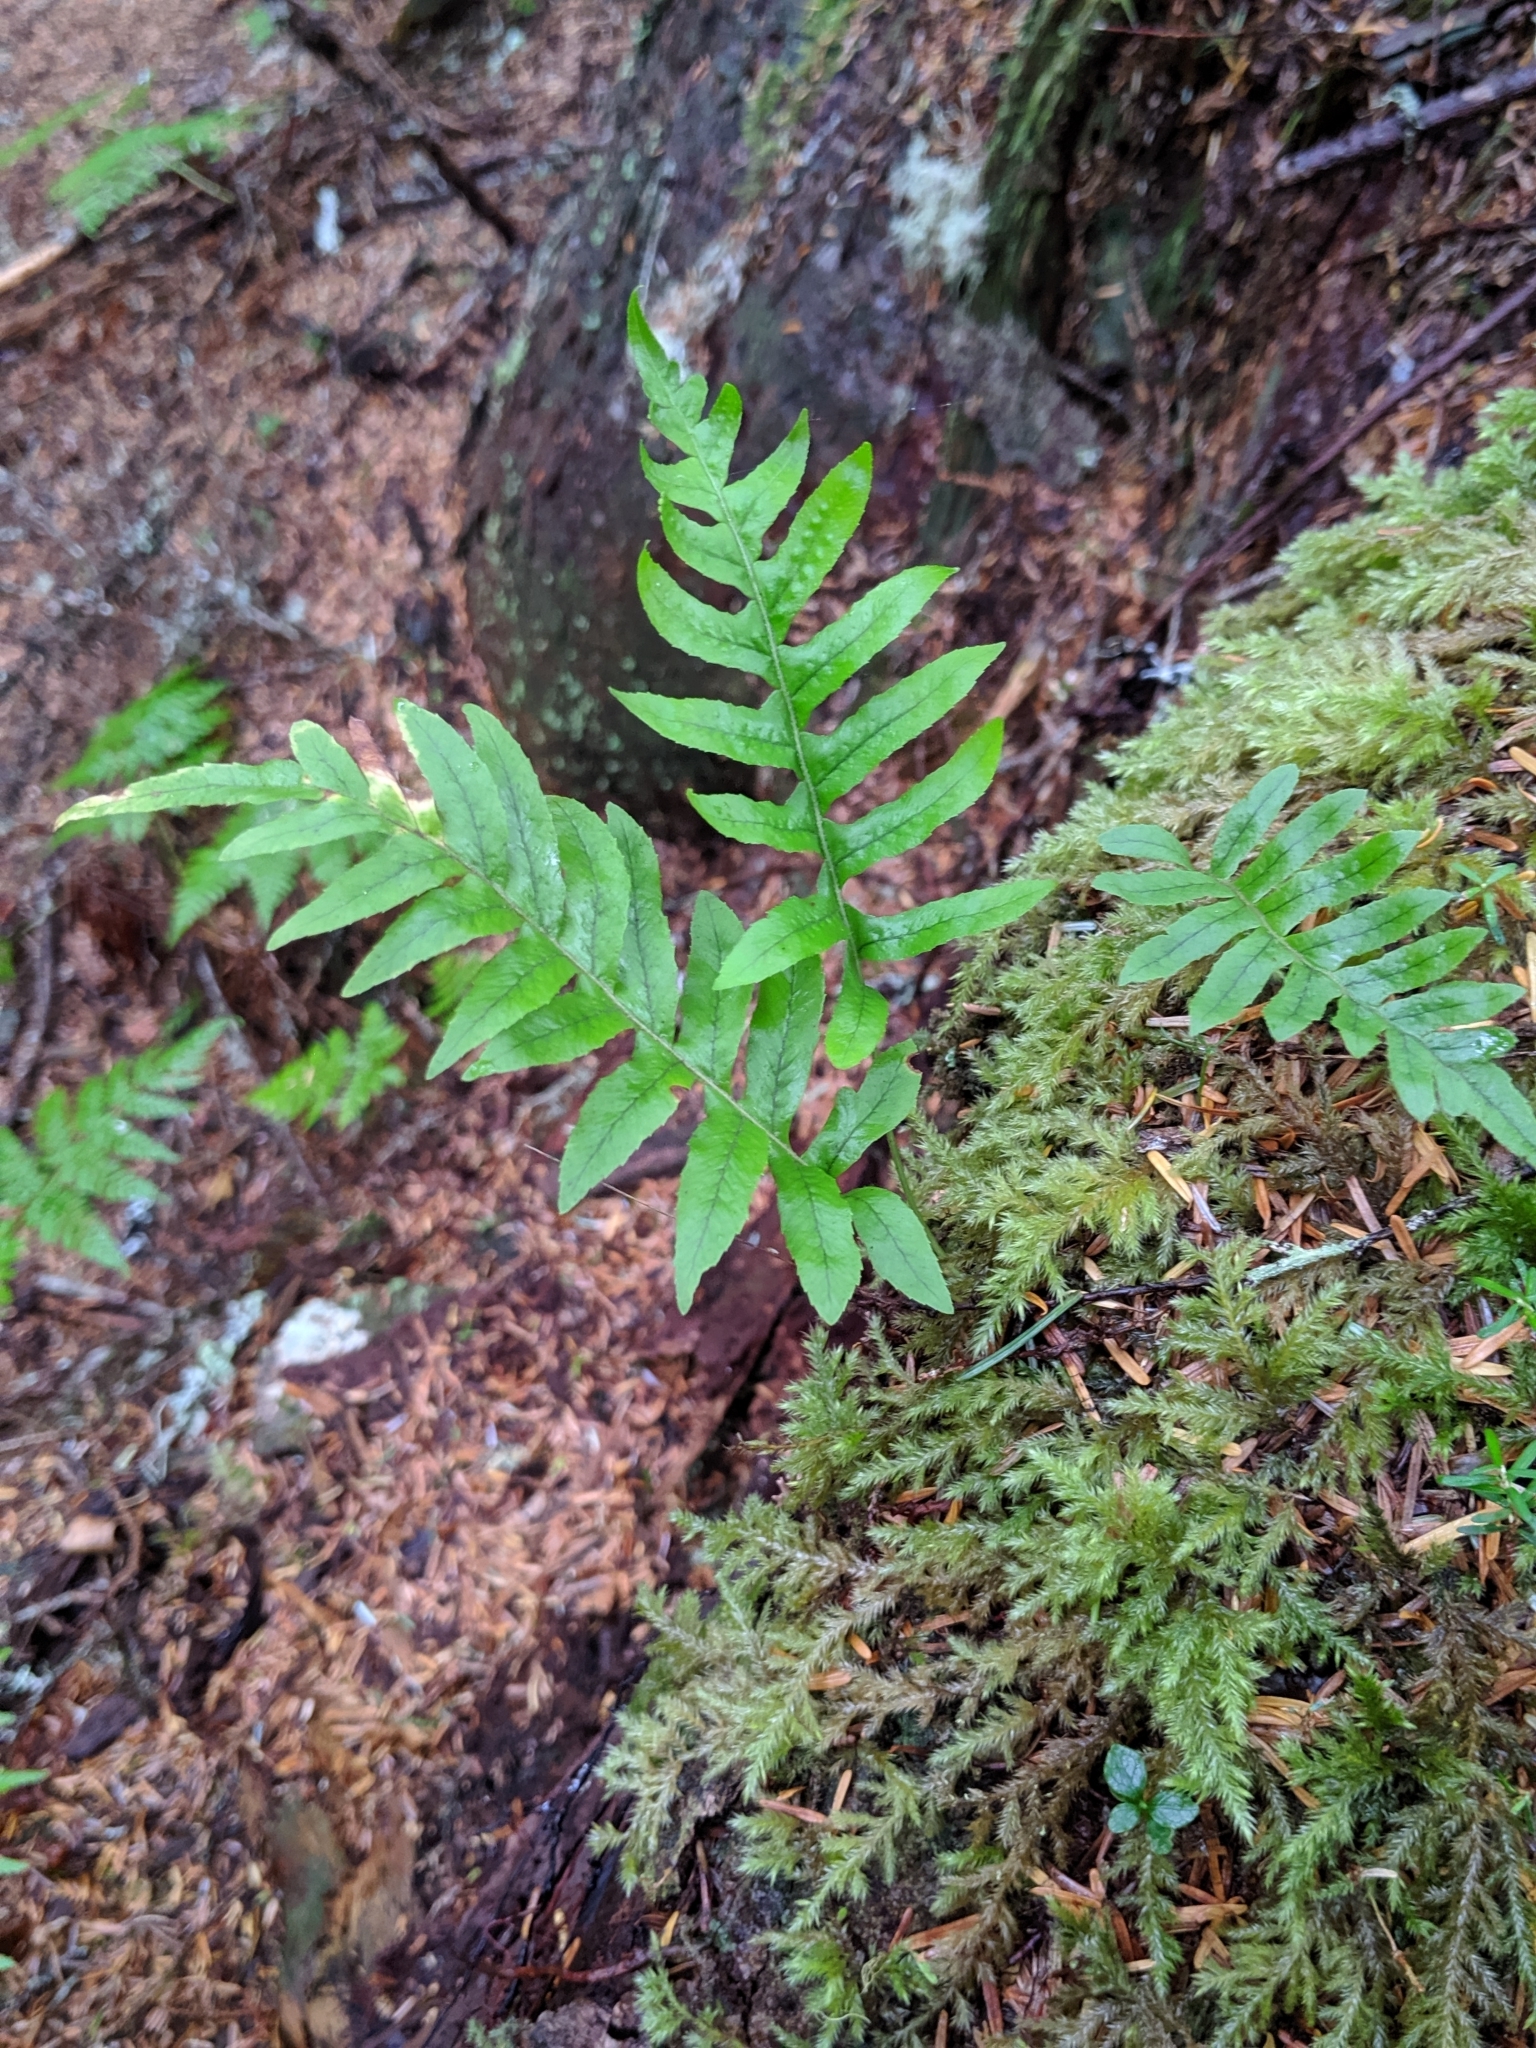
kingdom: Plantae
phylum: Tracheophyta
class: Polypodiopsida
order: Polypodiales
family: Polypodiaceae
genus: Polypodium
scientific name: Polypodium glycyrrhiza
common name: Licorice fern
